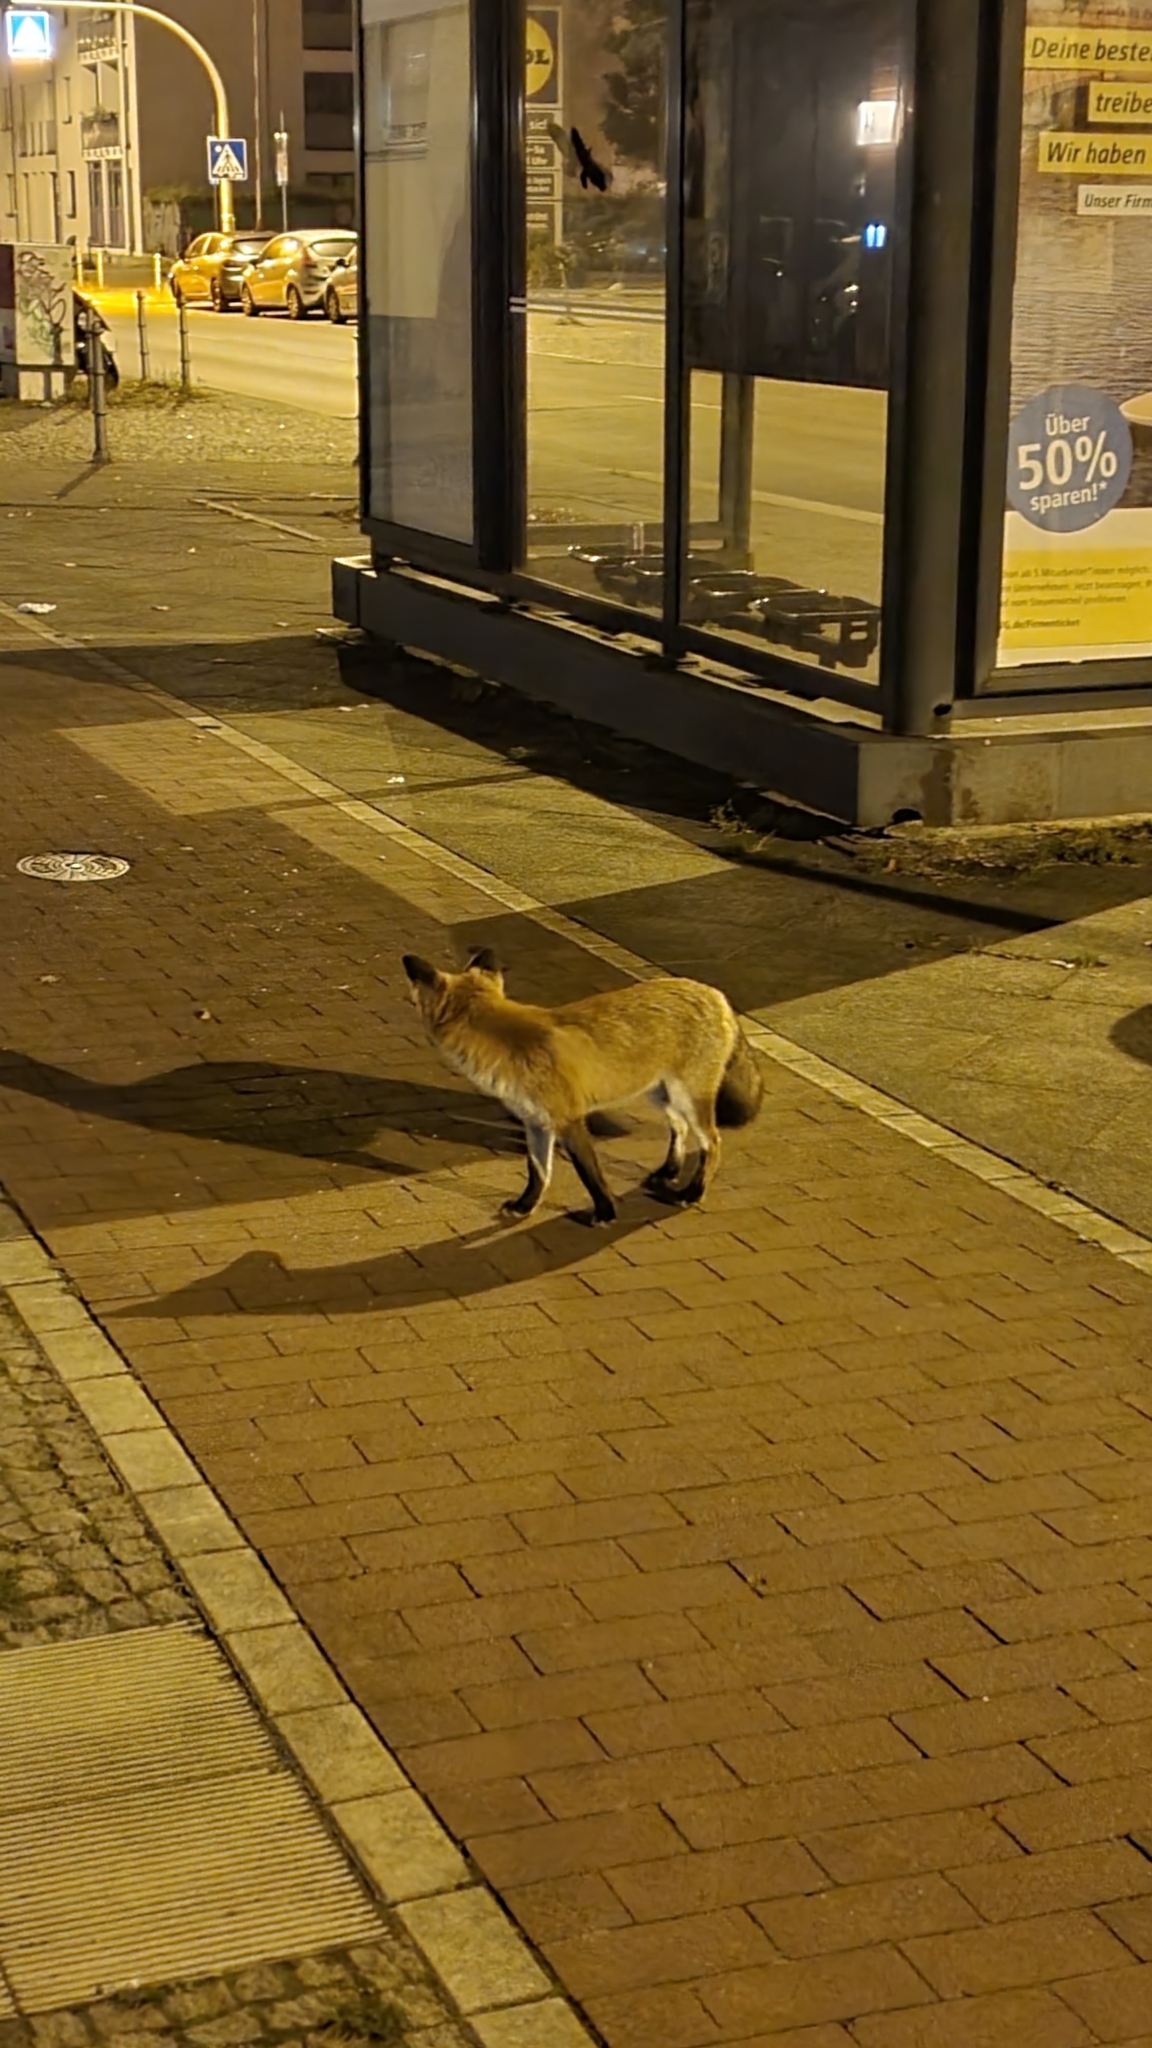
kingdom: Animalia
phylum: Chordata
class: Mammalia
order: Carnivora
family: Canidae
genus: Vulpes
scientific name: Vulpes vulpes
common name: Red fox
